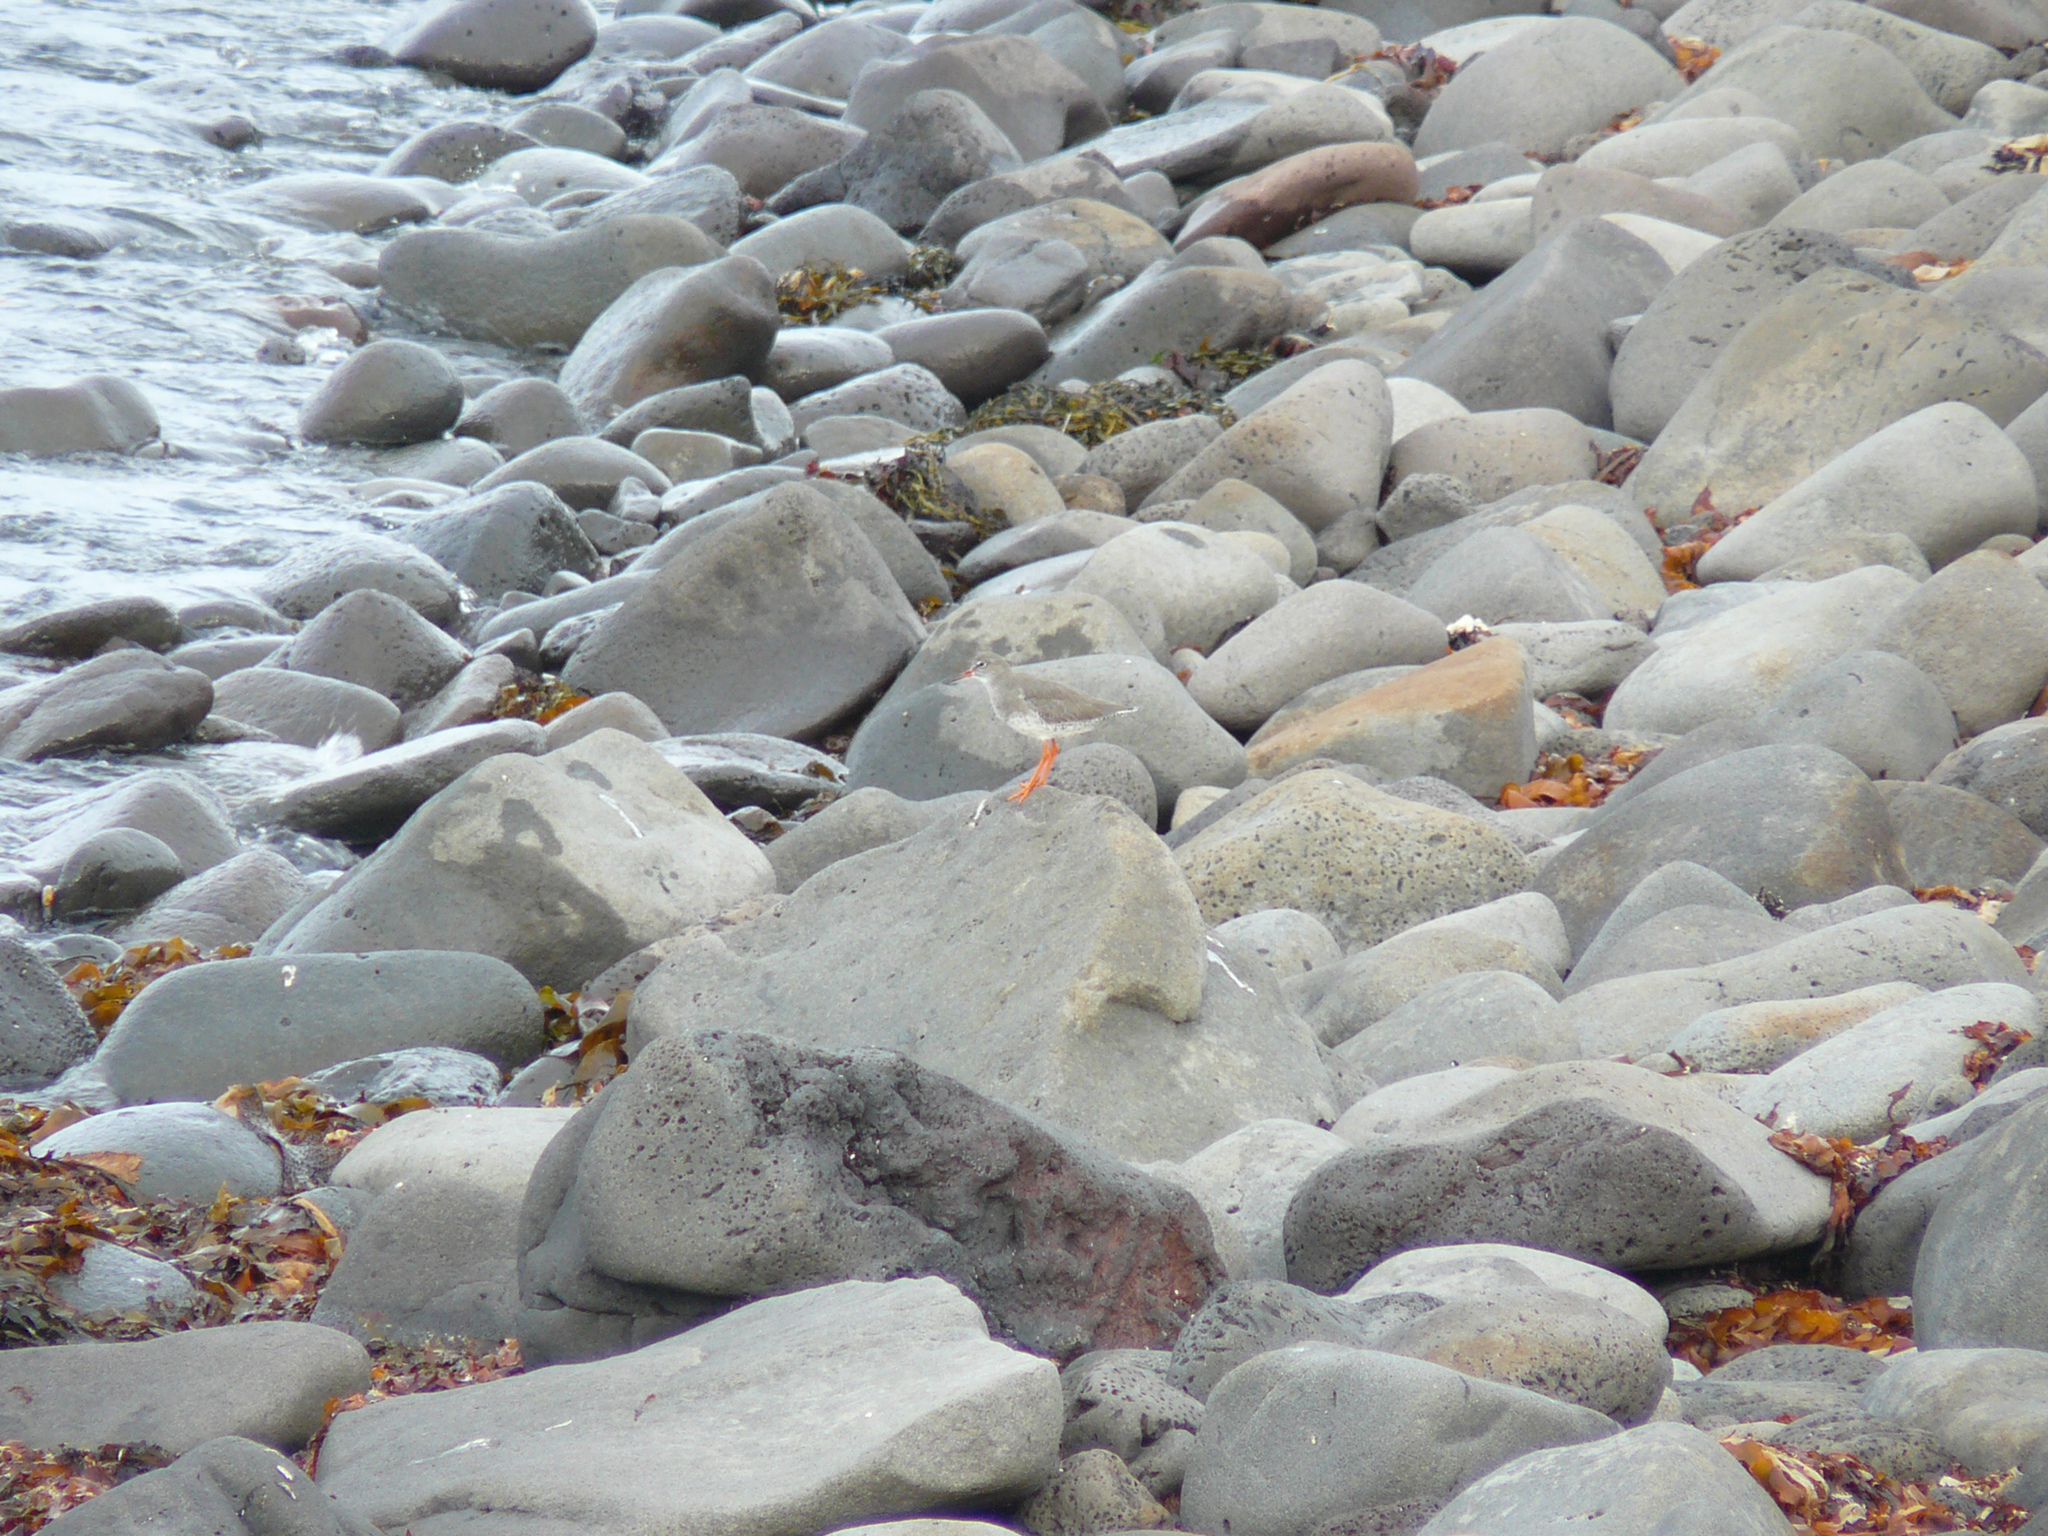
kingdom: Animalia
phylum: Chordata
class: Aves
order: Charadriiformes
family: Scolopacidae
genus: Tringa
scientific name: Tringa totanus
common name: Common redshank
